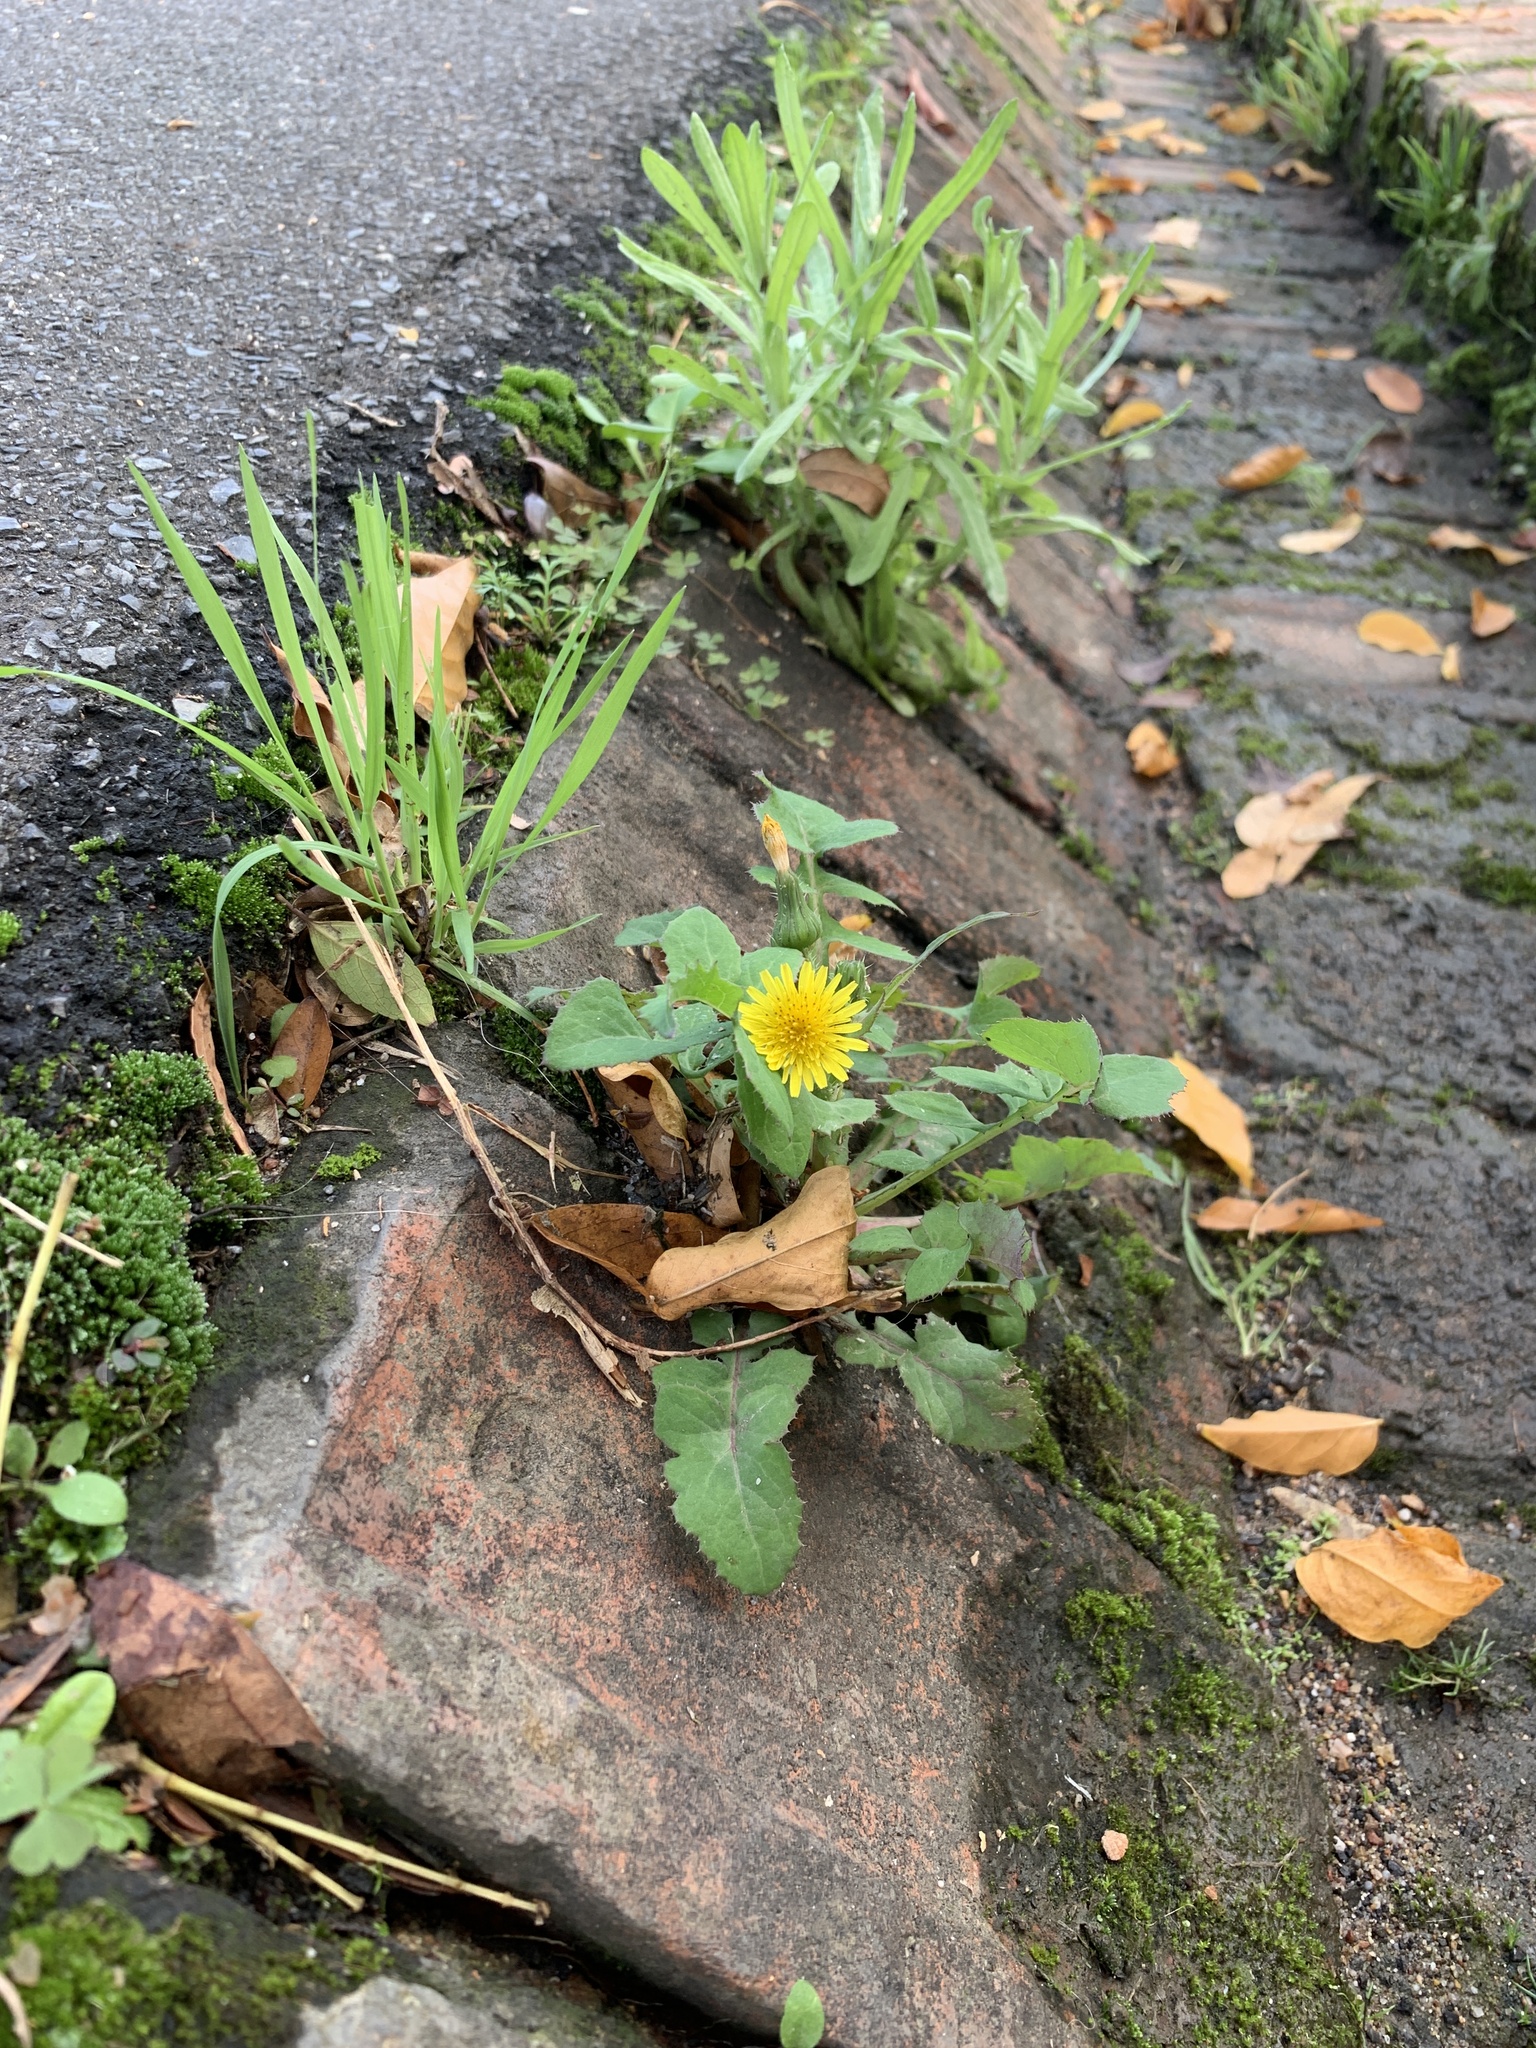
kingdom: Plantae
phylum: Tracheophyta
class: Magnoliopsida
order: Asterales
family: Asteraceae
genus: Sonchus
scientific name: Sonchus oleraceus
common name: Common sowthistle
